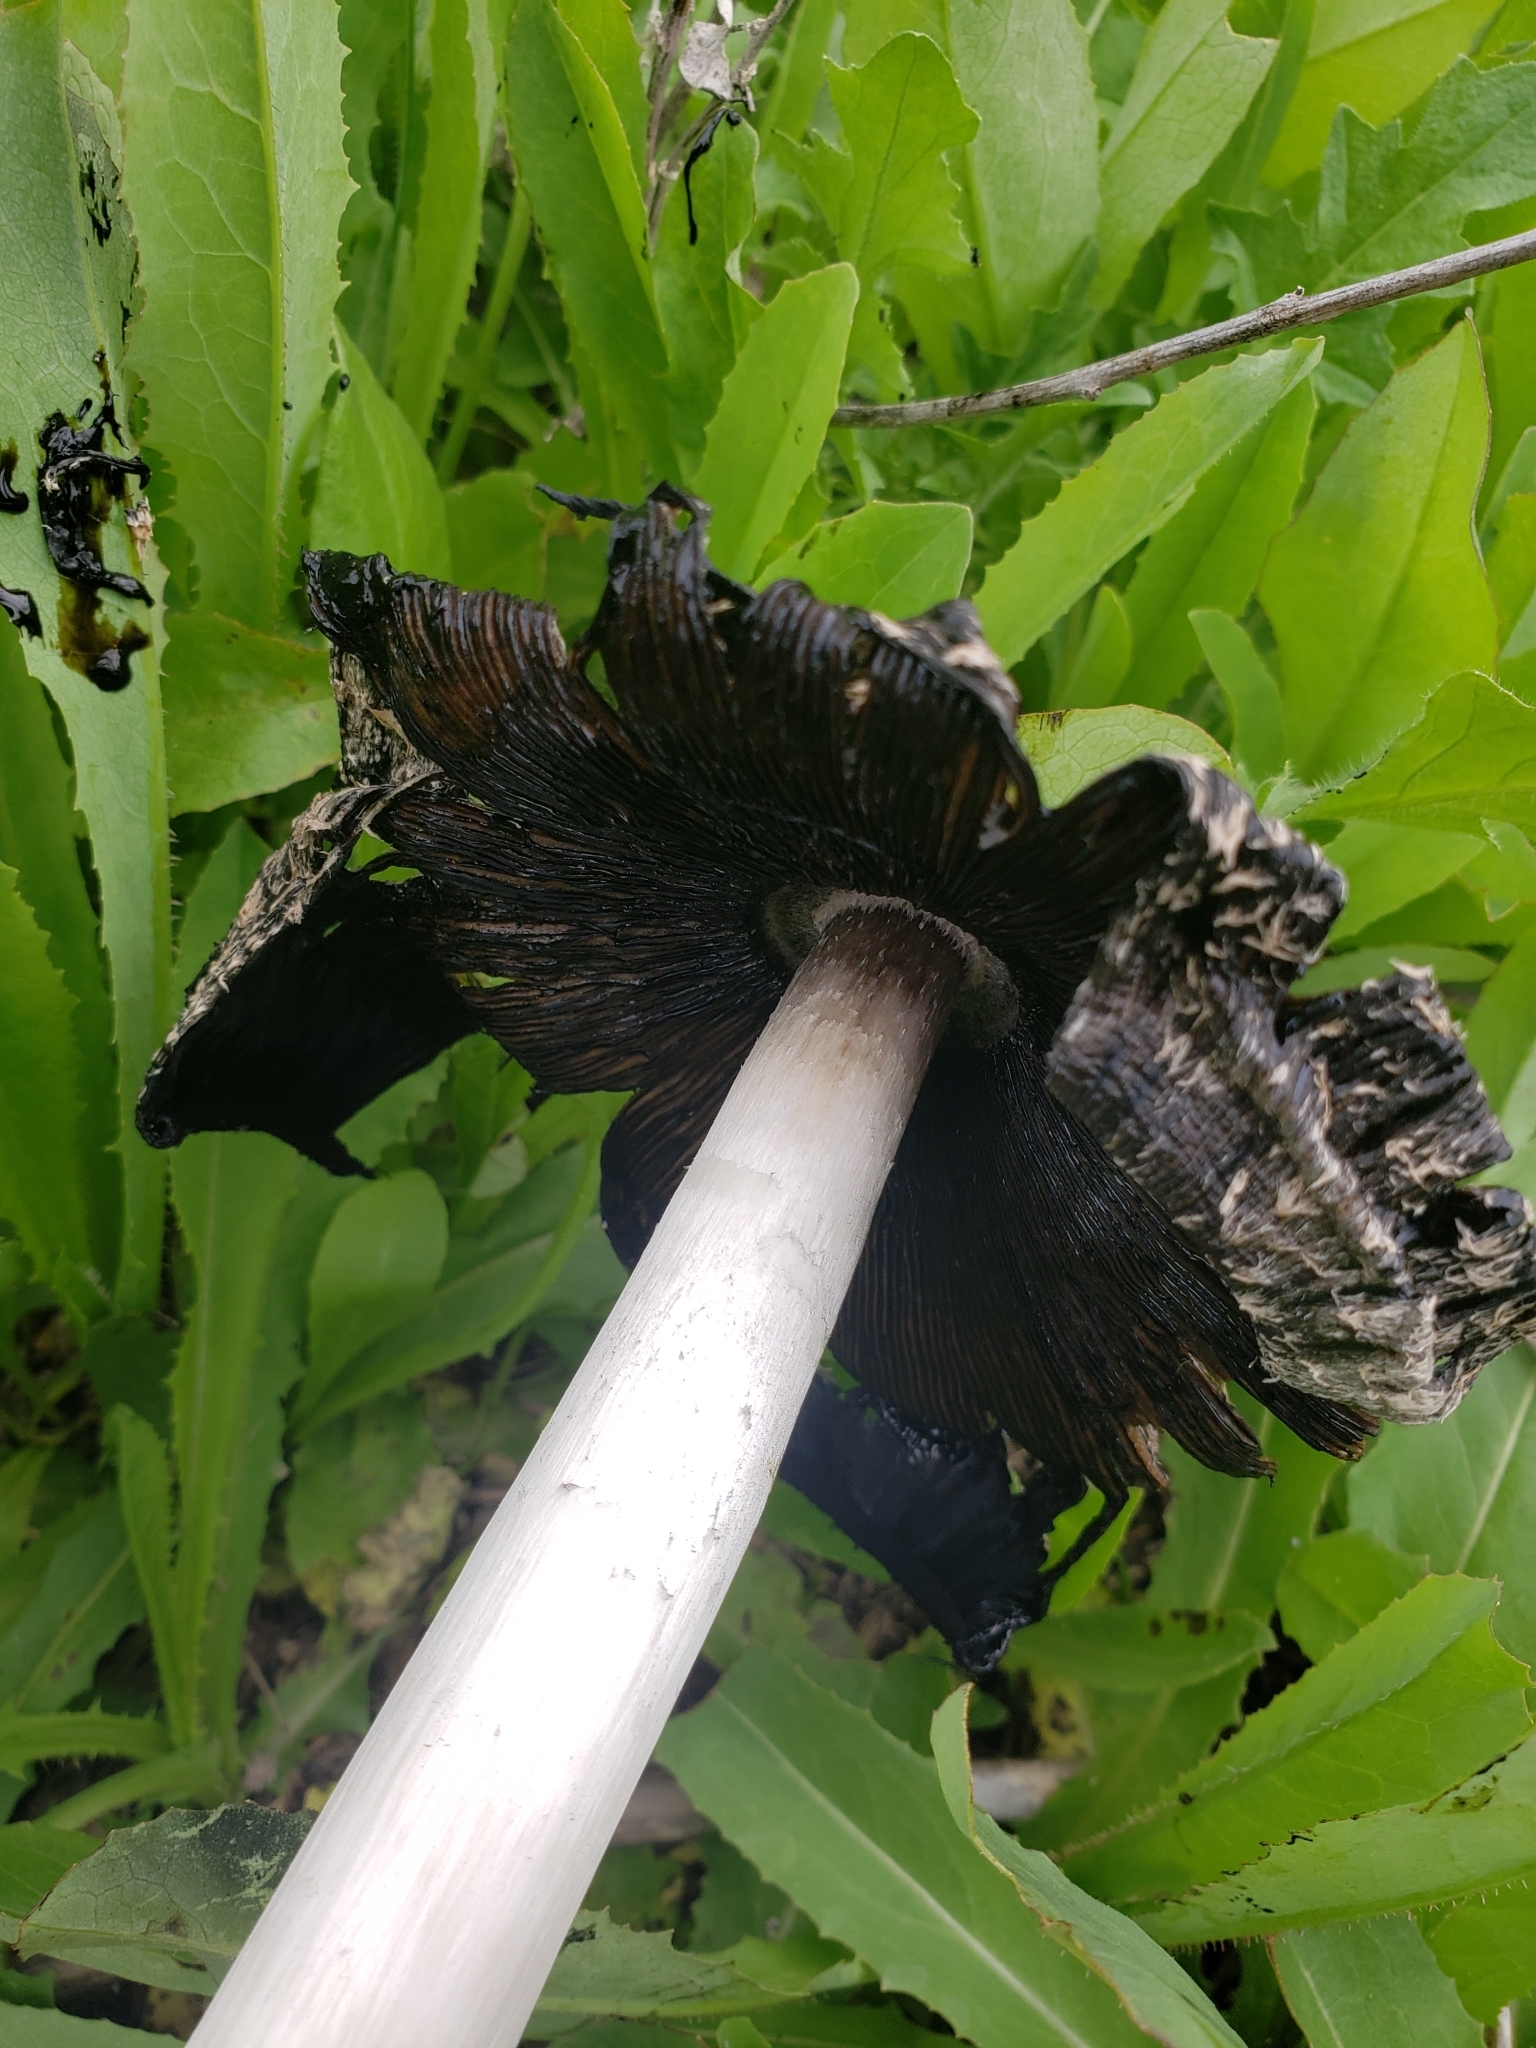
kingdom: Fungi
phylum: Basidiomycota
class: Agaricomycetes
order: Agaricales
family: Agaricaceae
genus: Coprinus
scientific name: Coprinus comatus
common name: Lawyer's wig
